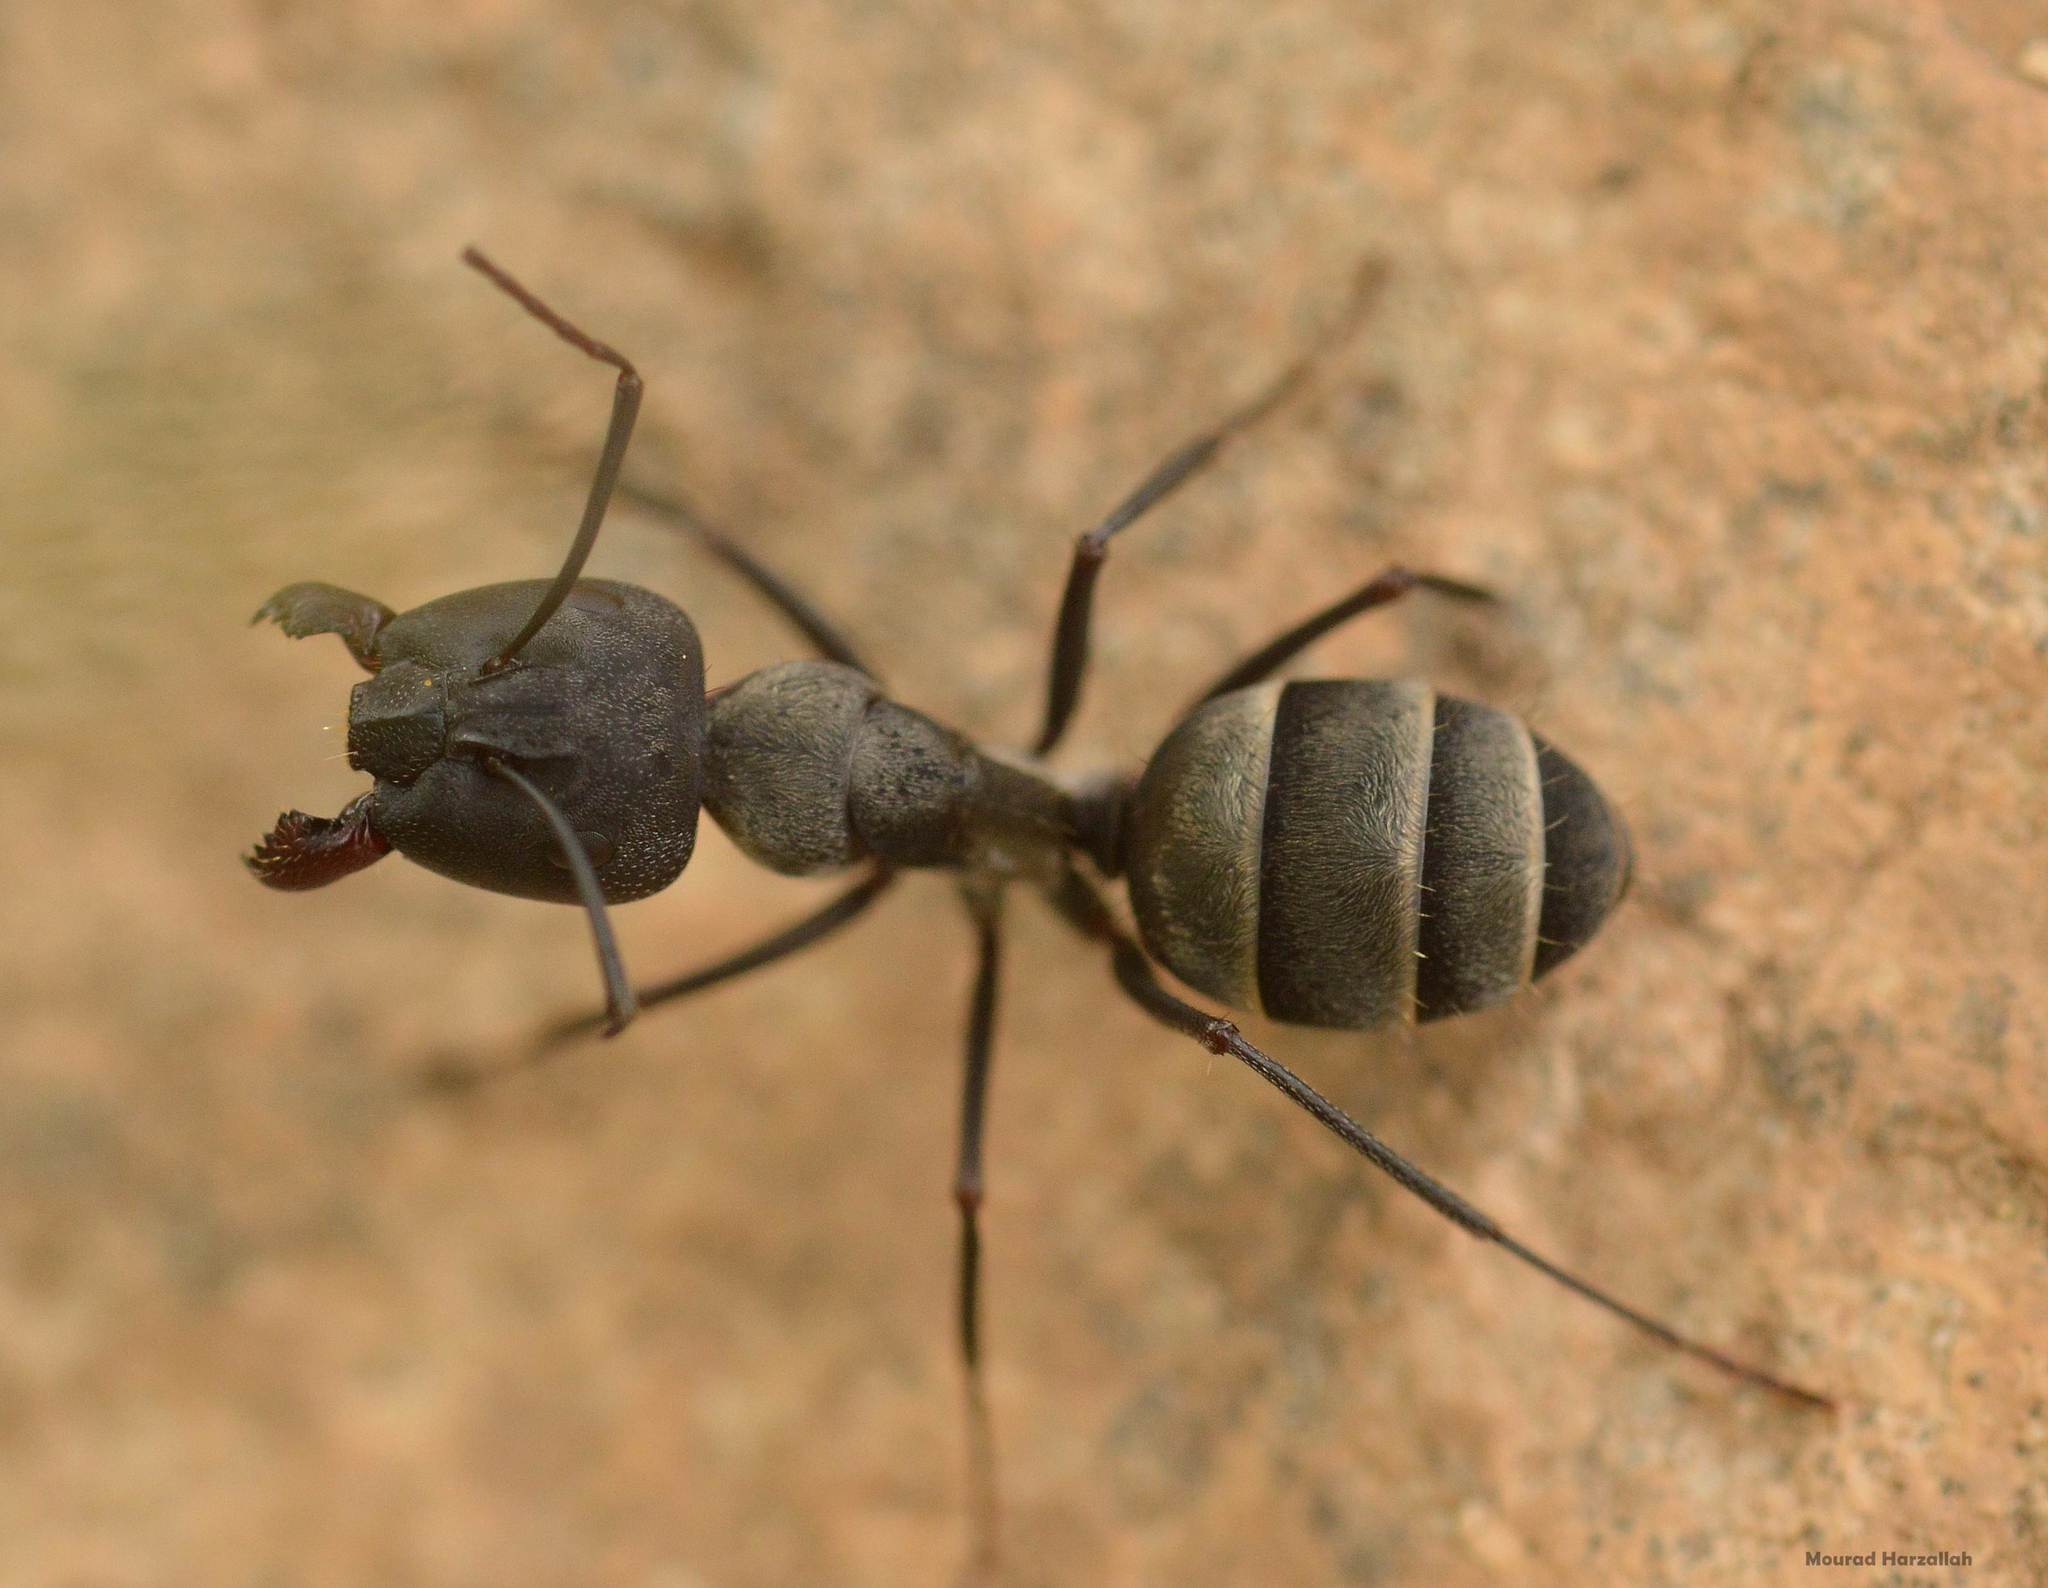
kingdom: Animalia
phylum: Arthropoda
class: Insecta
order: Hymenoptera
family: Formicidae
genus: Camponotus
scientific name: Camponotus micans
